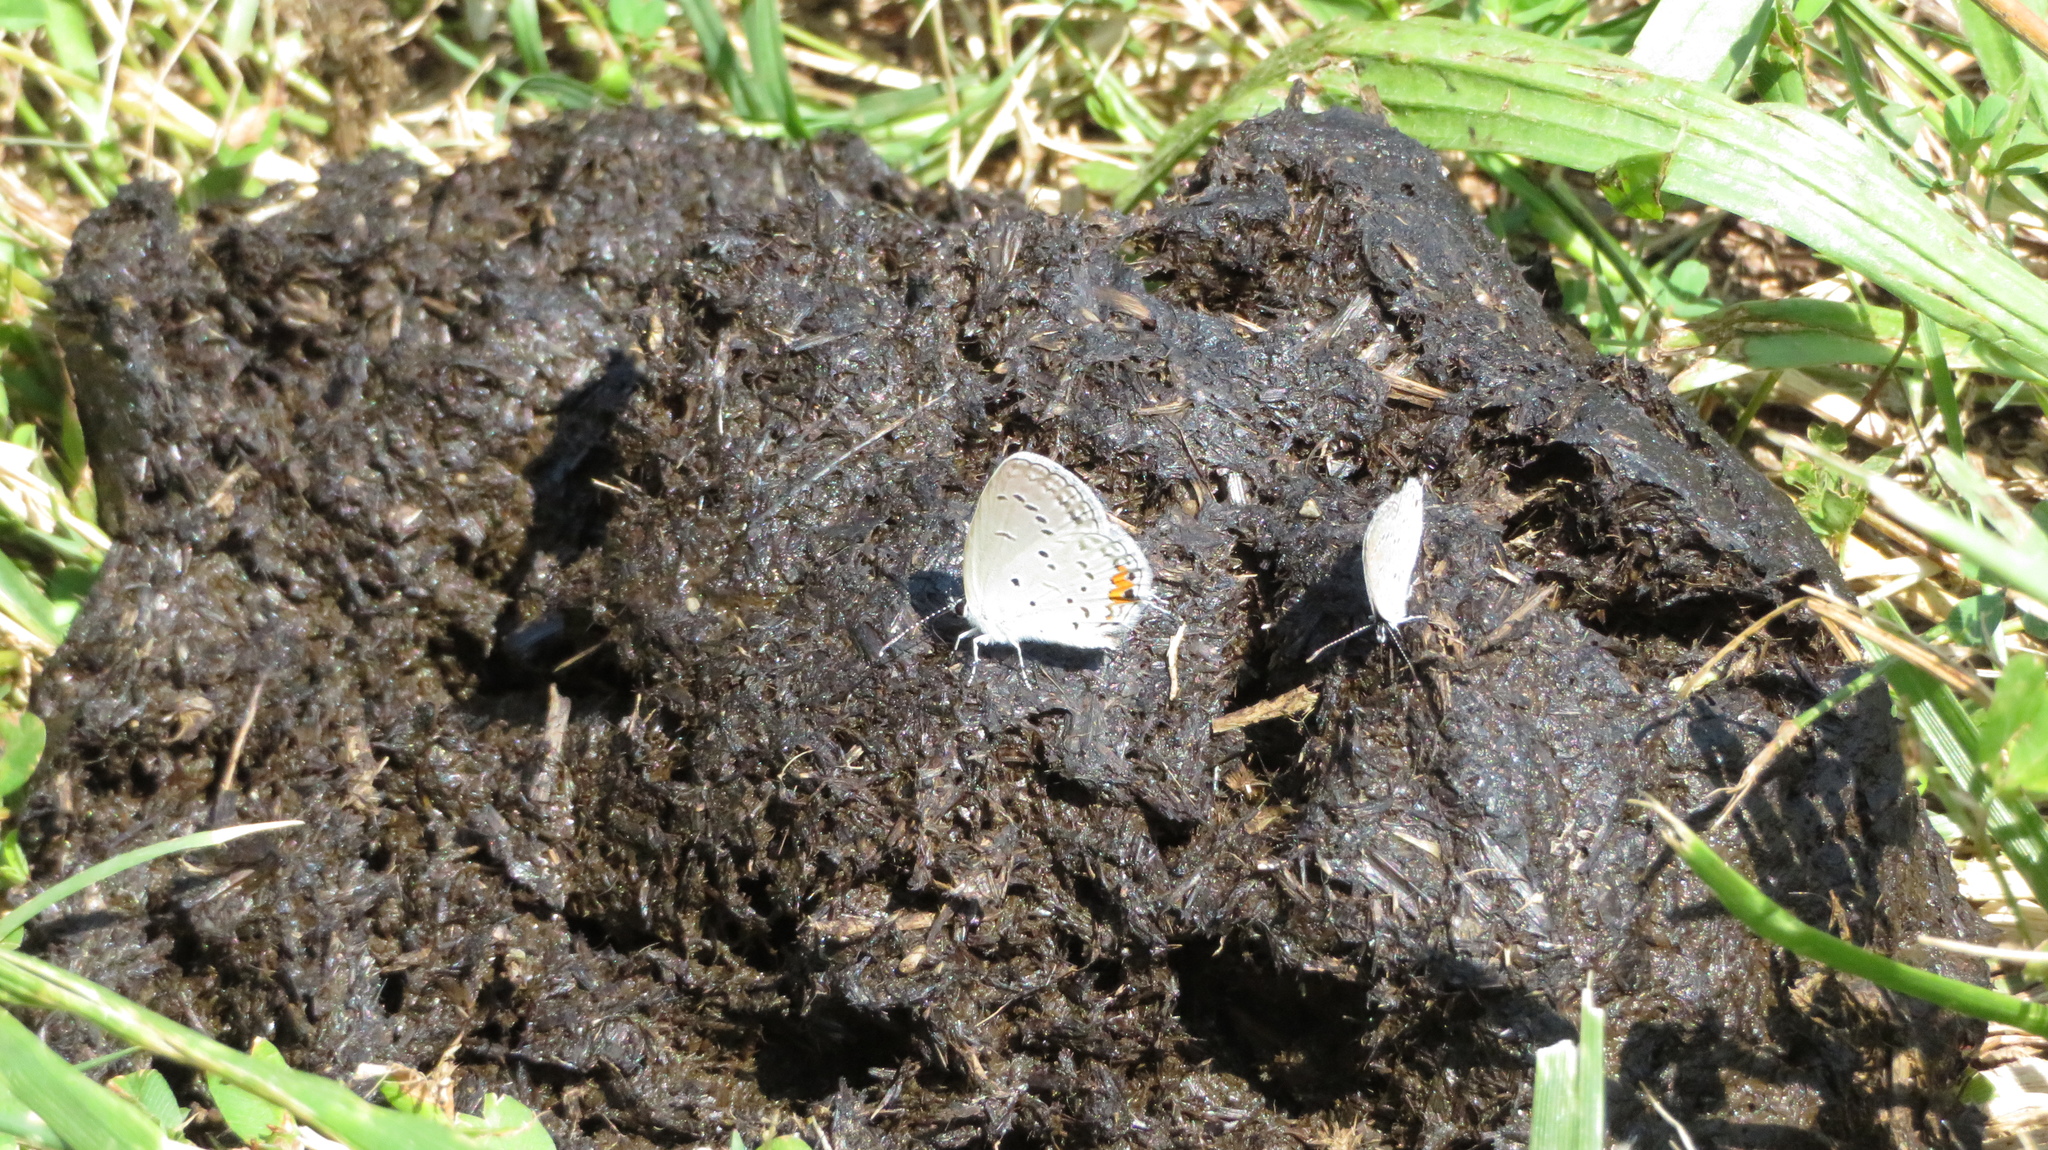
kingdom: Animalia
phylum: Arthropoda
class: Insecta
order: Lepidoptera
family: Lycaenidae
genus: Elkalyce
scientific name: Elkalyce comyntas
